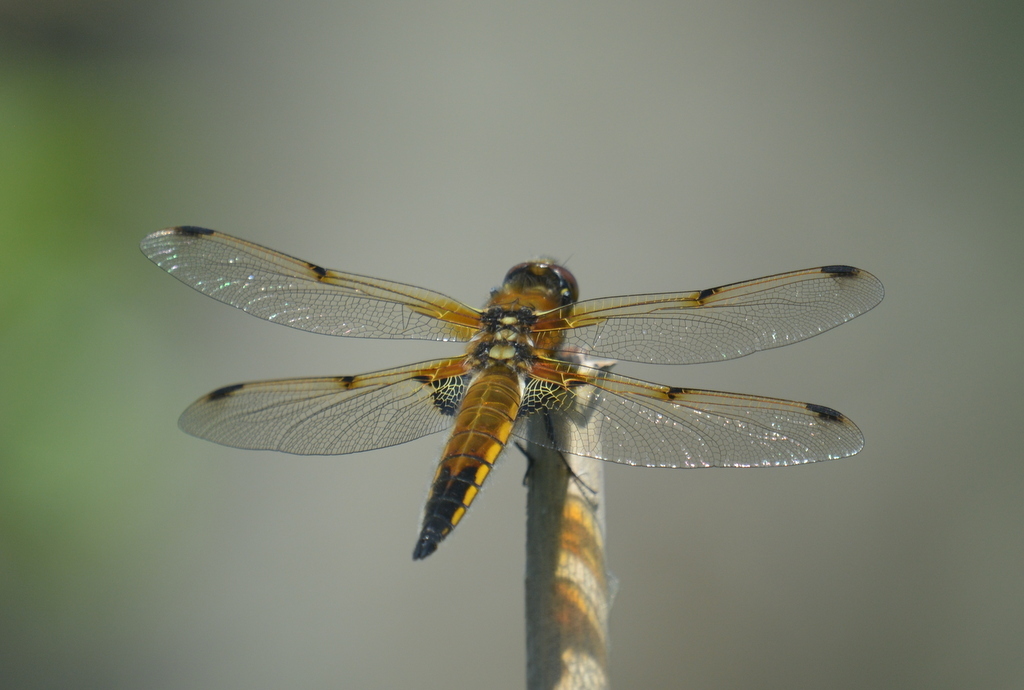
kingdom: Animalia
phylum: Arthropoda
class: Insecta
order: Odonata
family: Libellulidae
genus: Libellula
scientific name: Libellula quadrimaculata
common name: Four-spotted chaser
